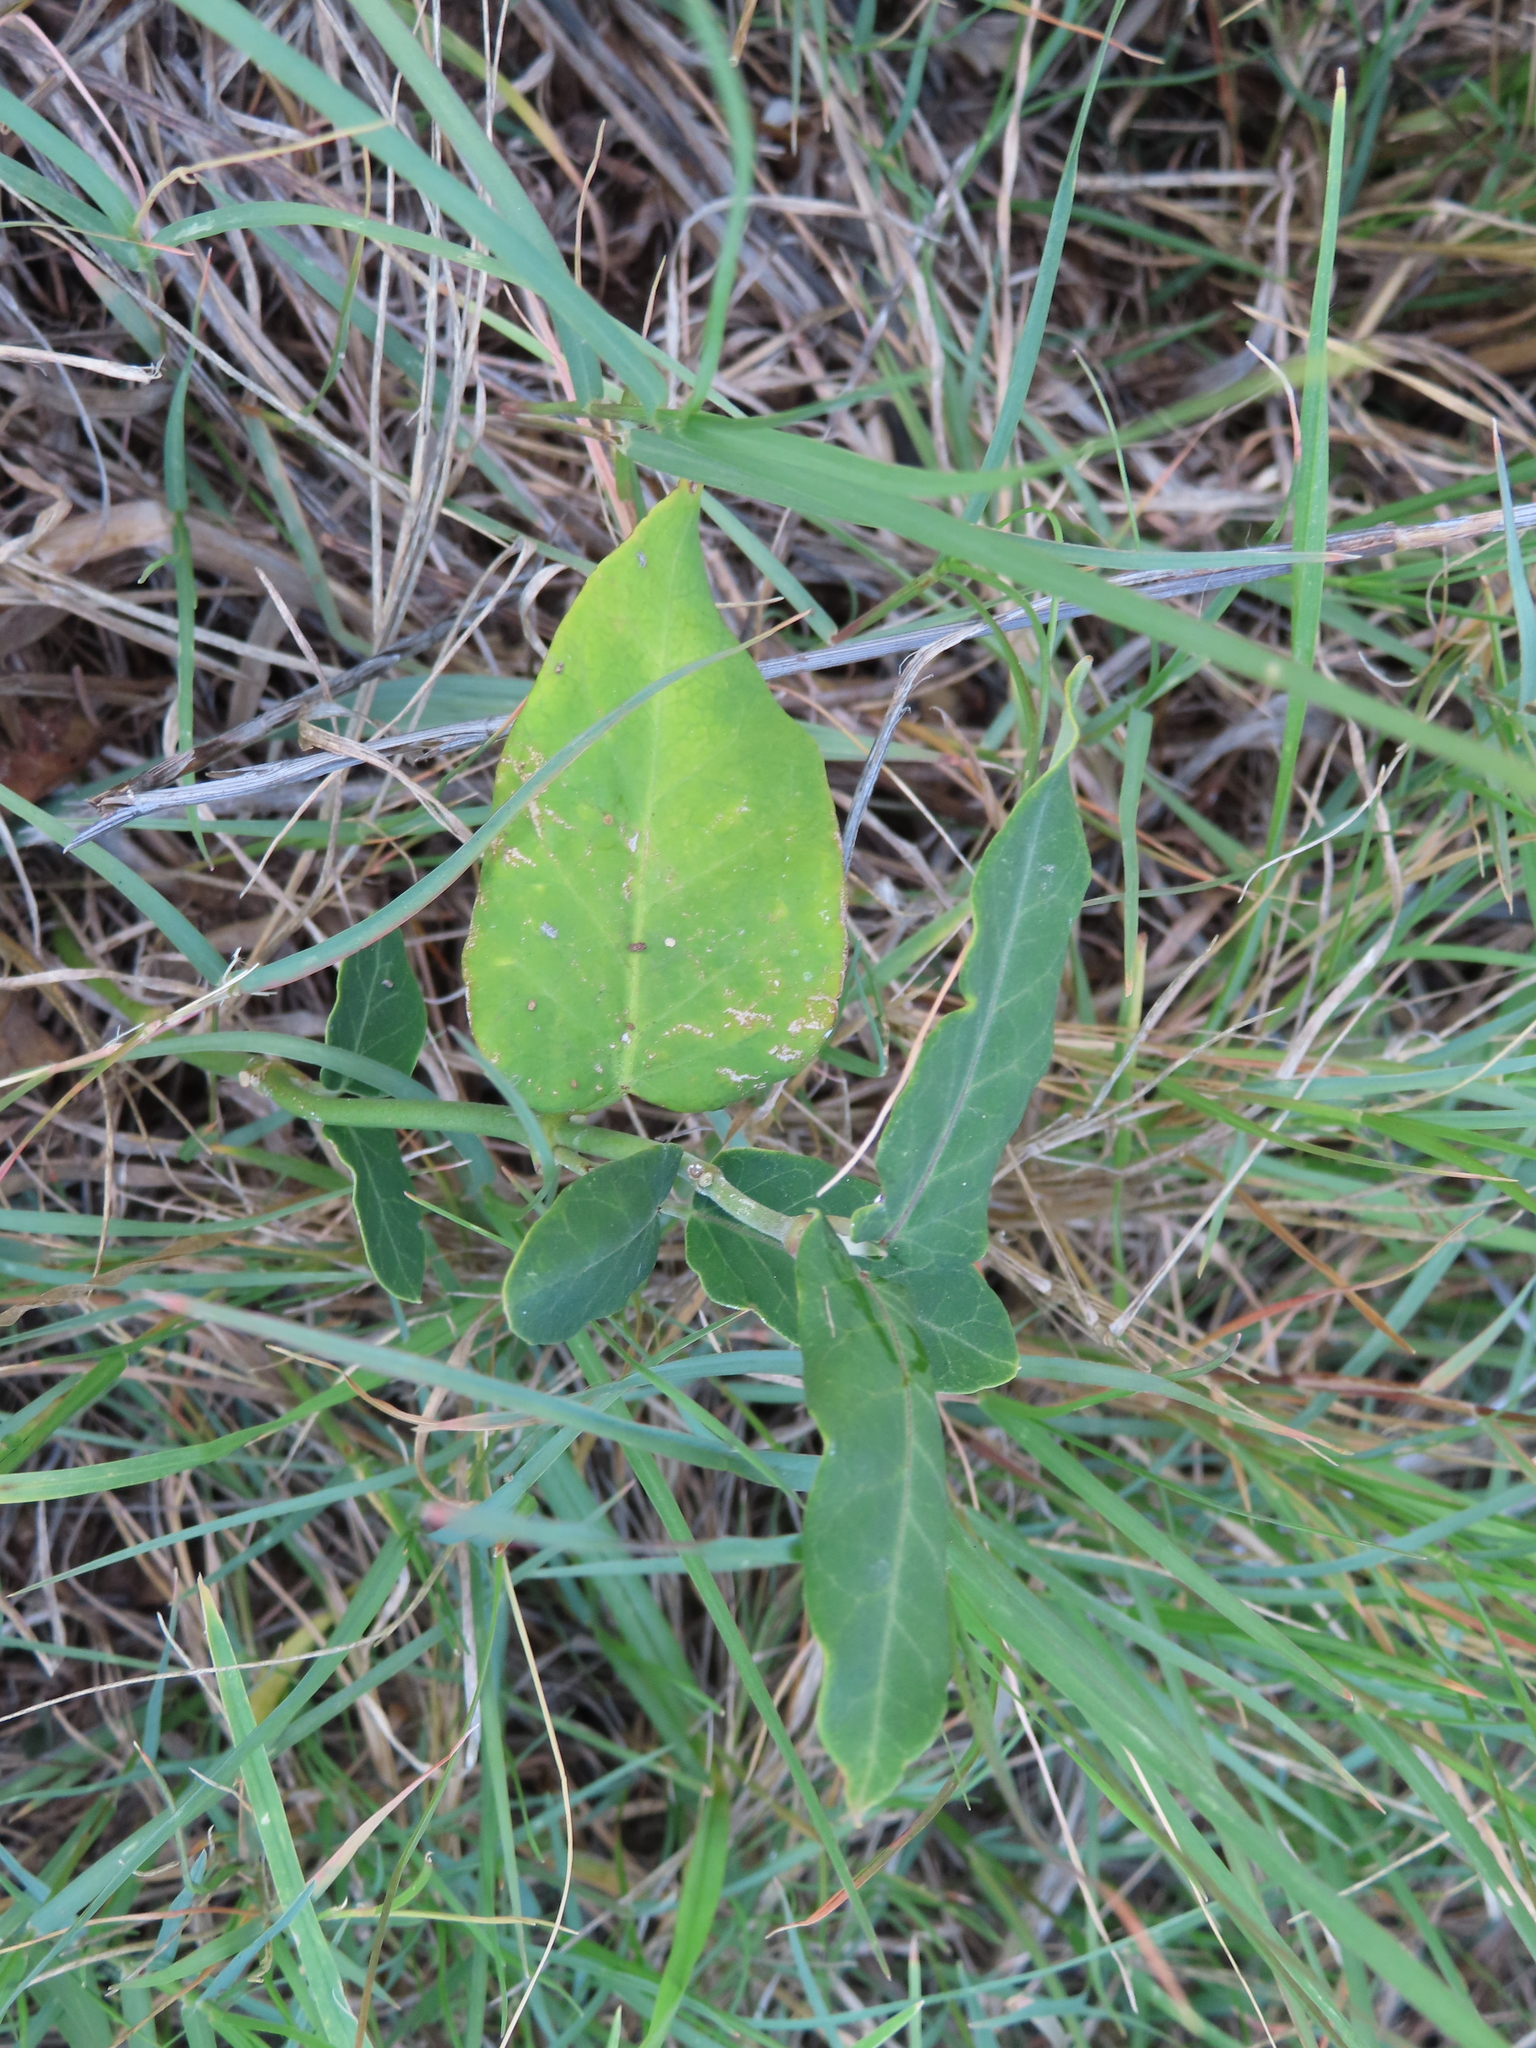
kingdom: Plantae
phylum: Tracheophyta
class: Magnoliopsida
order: Gentianales
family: Apocynaceae
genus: Araujia
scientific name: Araujia sericifera
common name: White bladderflower
